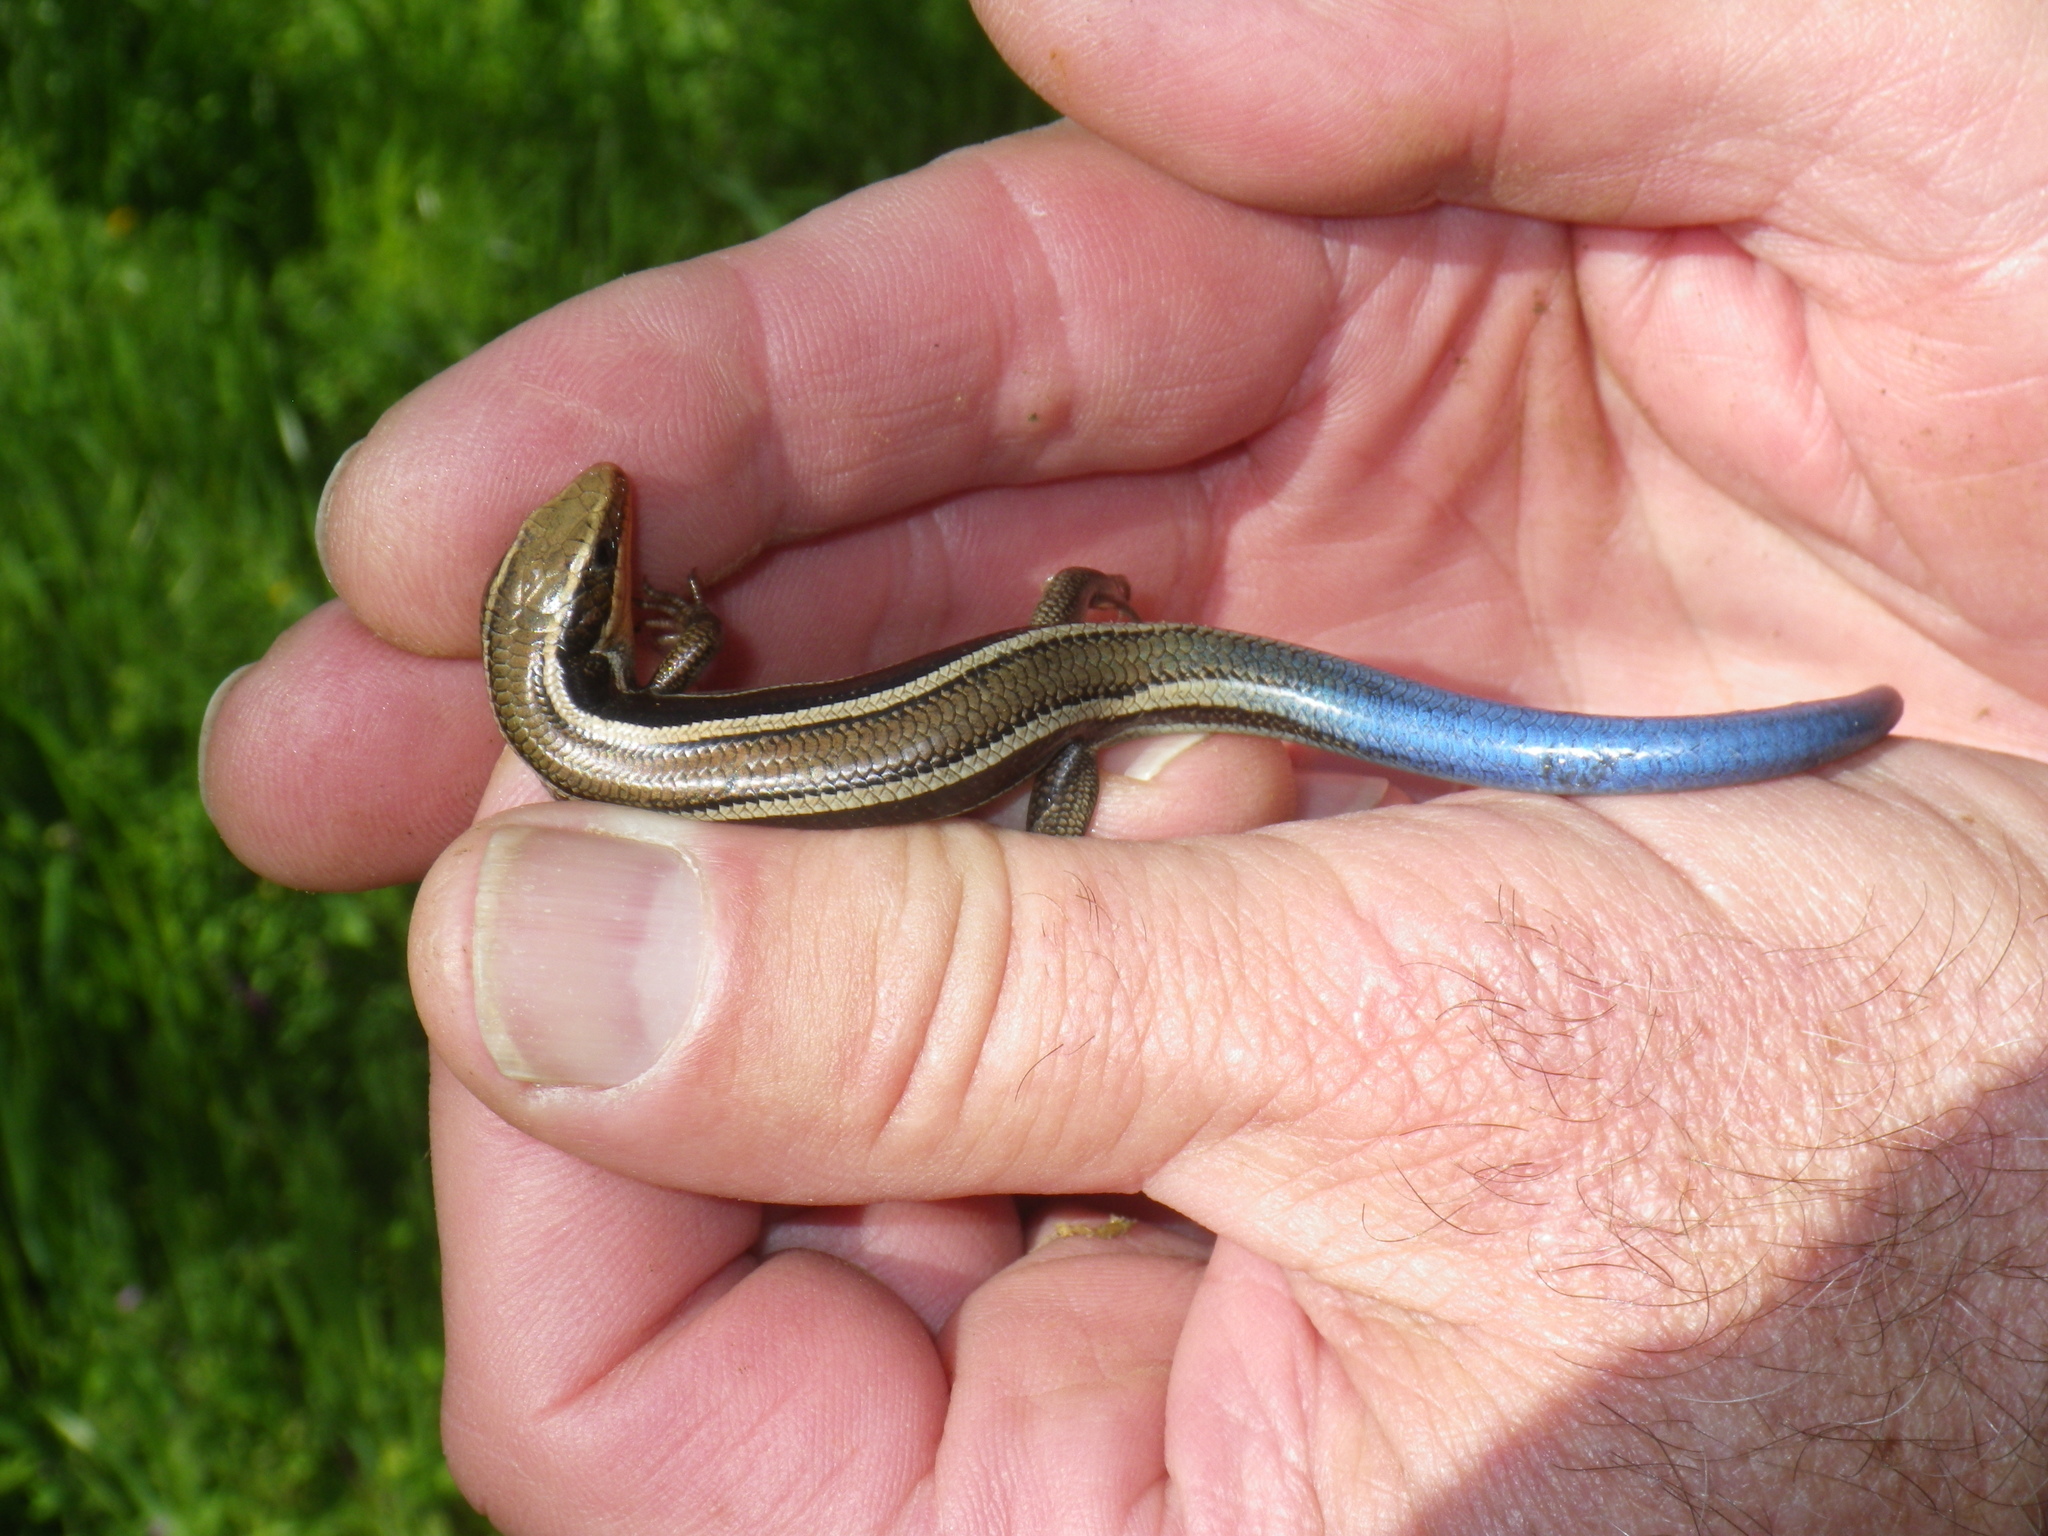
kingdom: Animalia
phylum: Chordata
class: Squamata
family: Scincidae
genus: Plestiodon
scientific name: Plestiodon skiltonianus
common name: Coronado island skink [interparietalis]
